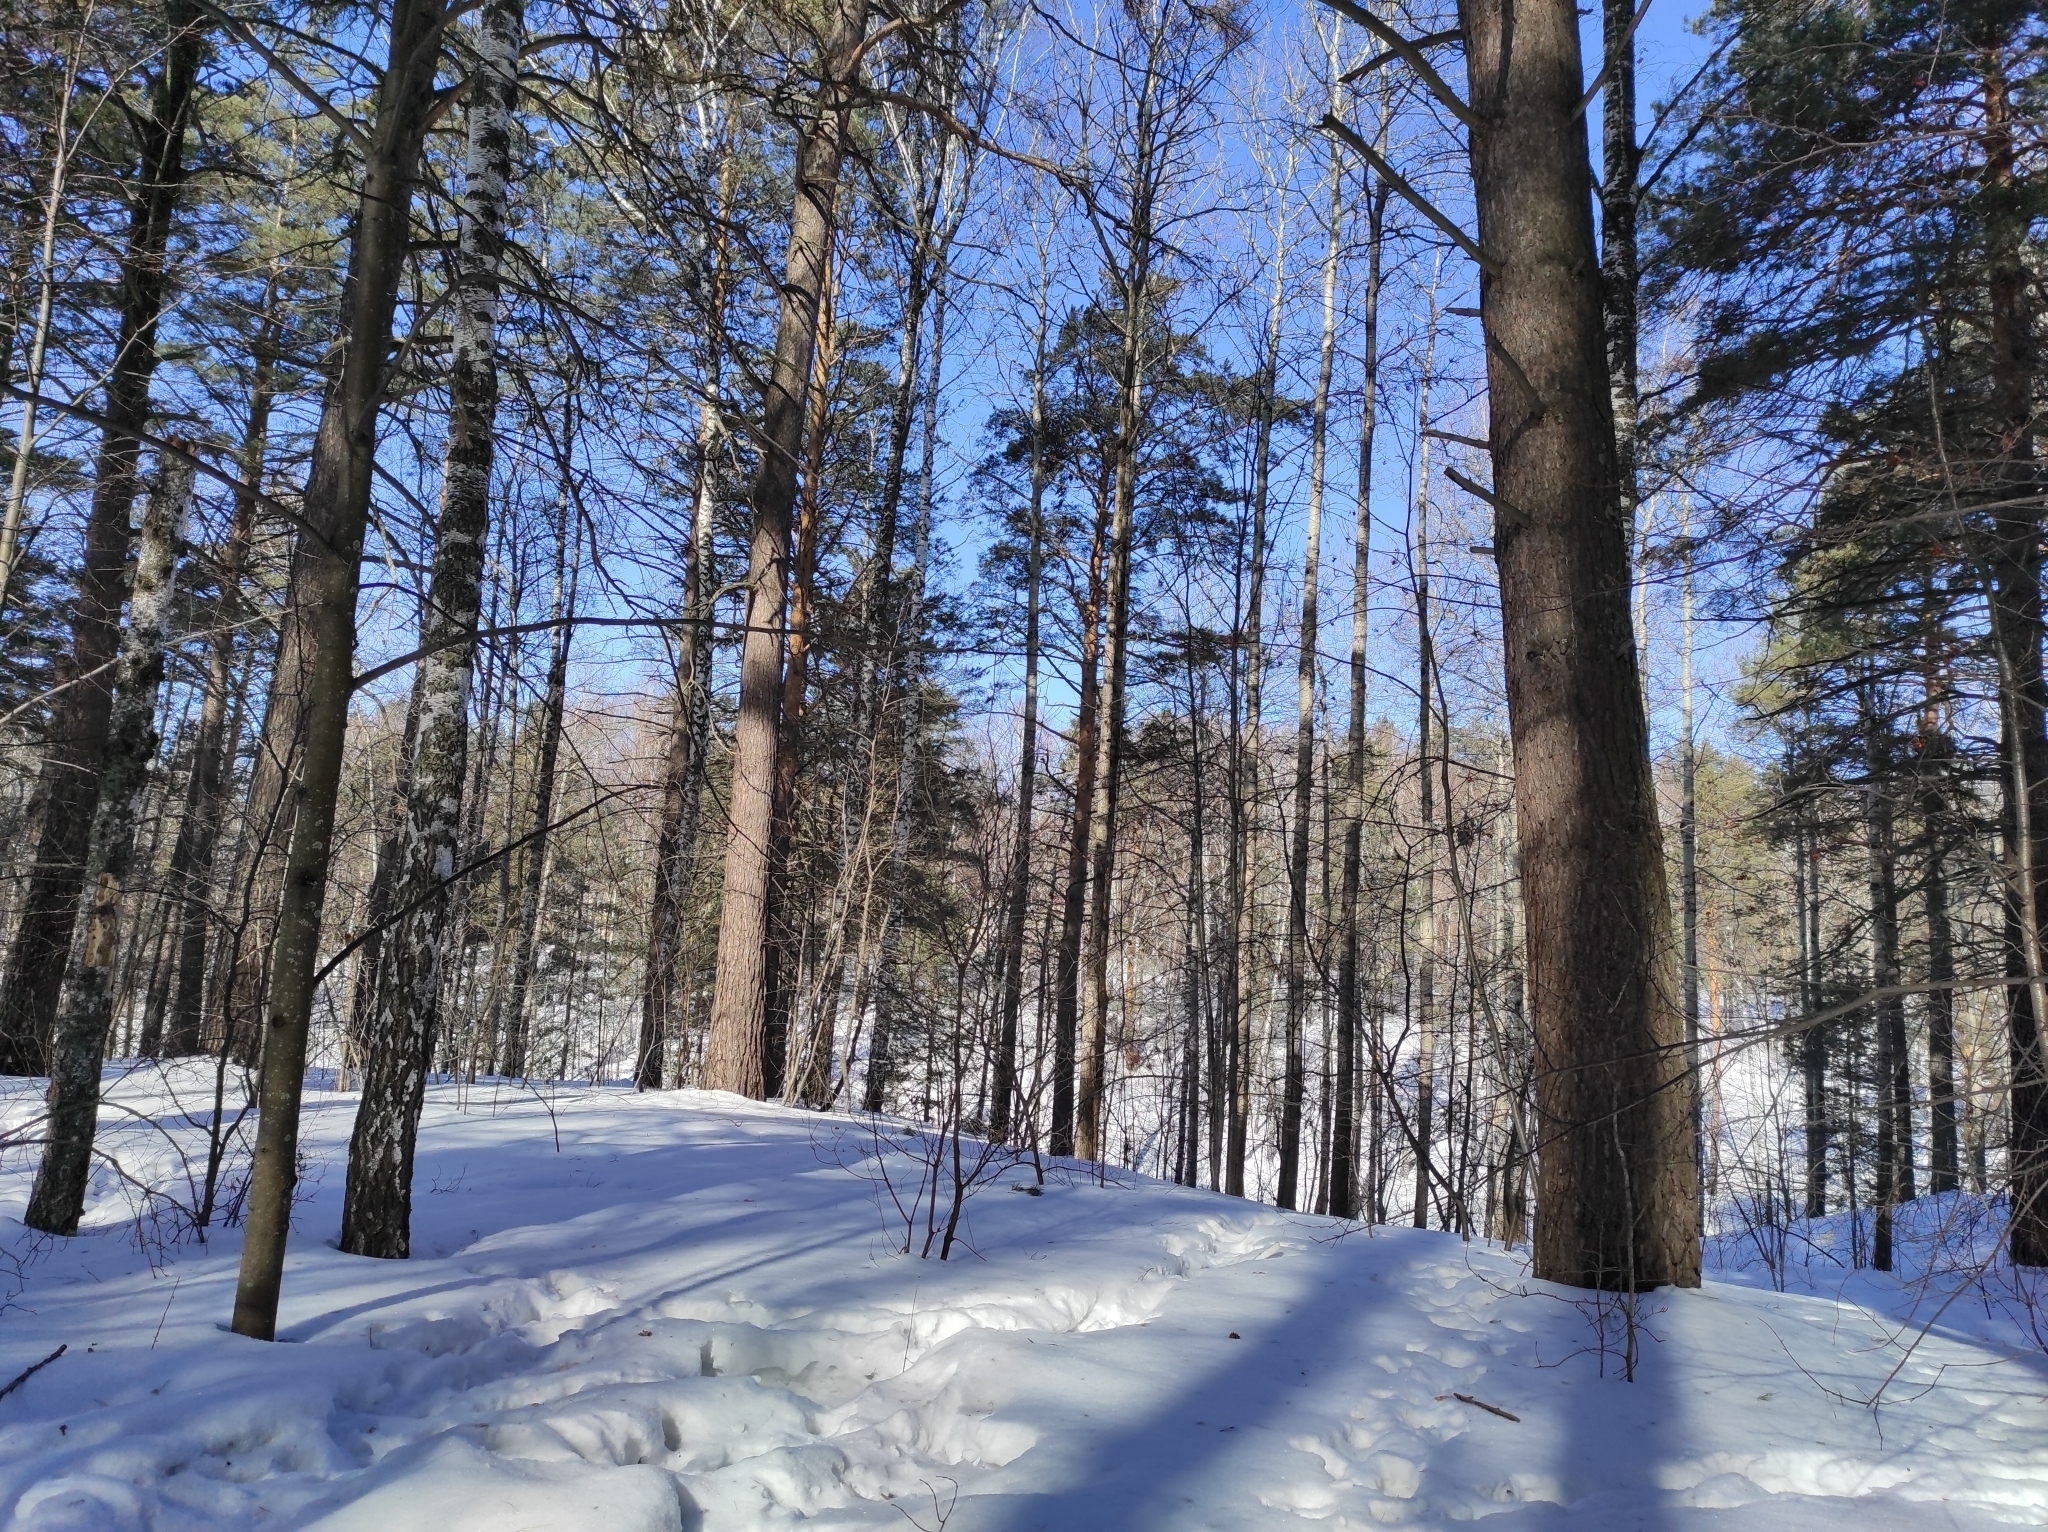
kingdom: Animalia
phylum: Chordata
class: Aves
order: Passeriformes
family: Sittidae
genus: Sitta
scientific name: Sitta europaea
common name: Eurasian nuthatch
